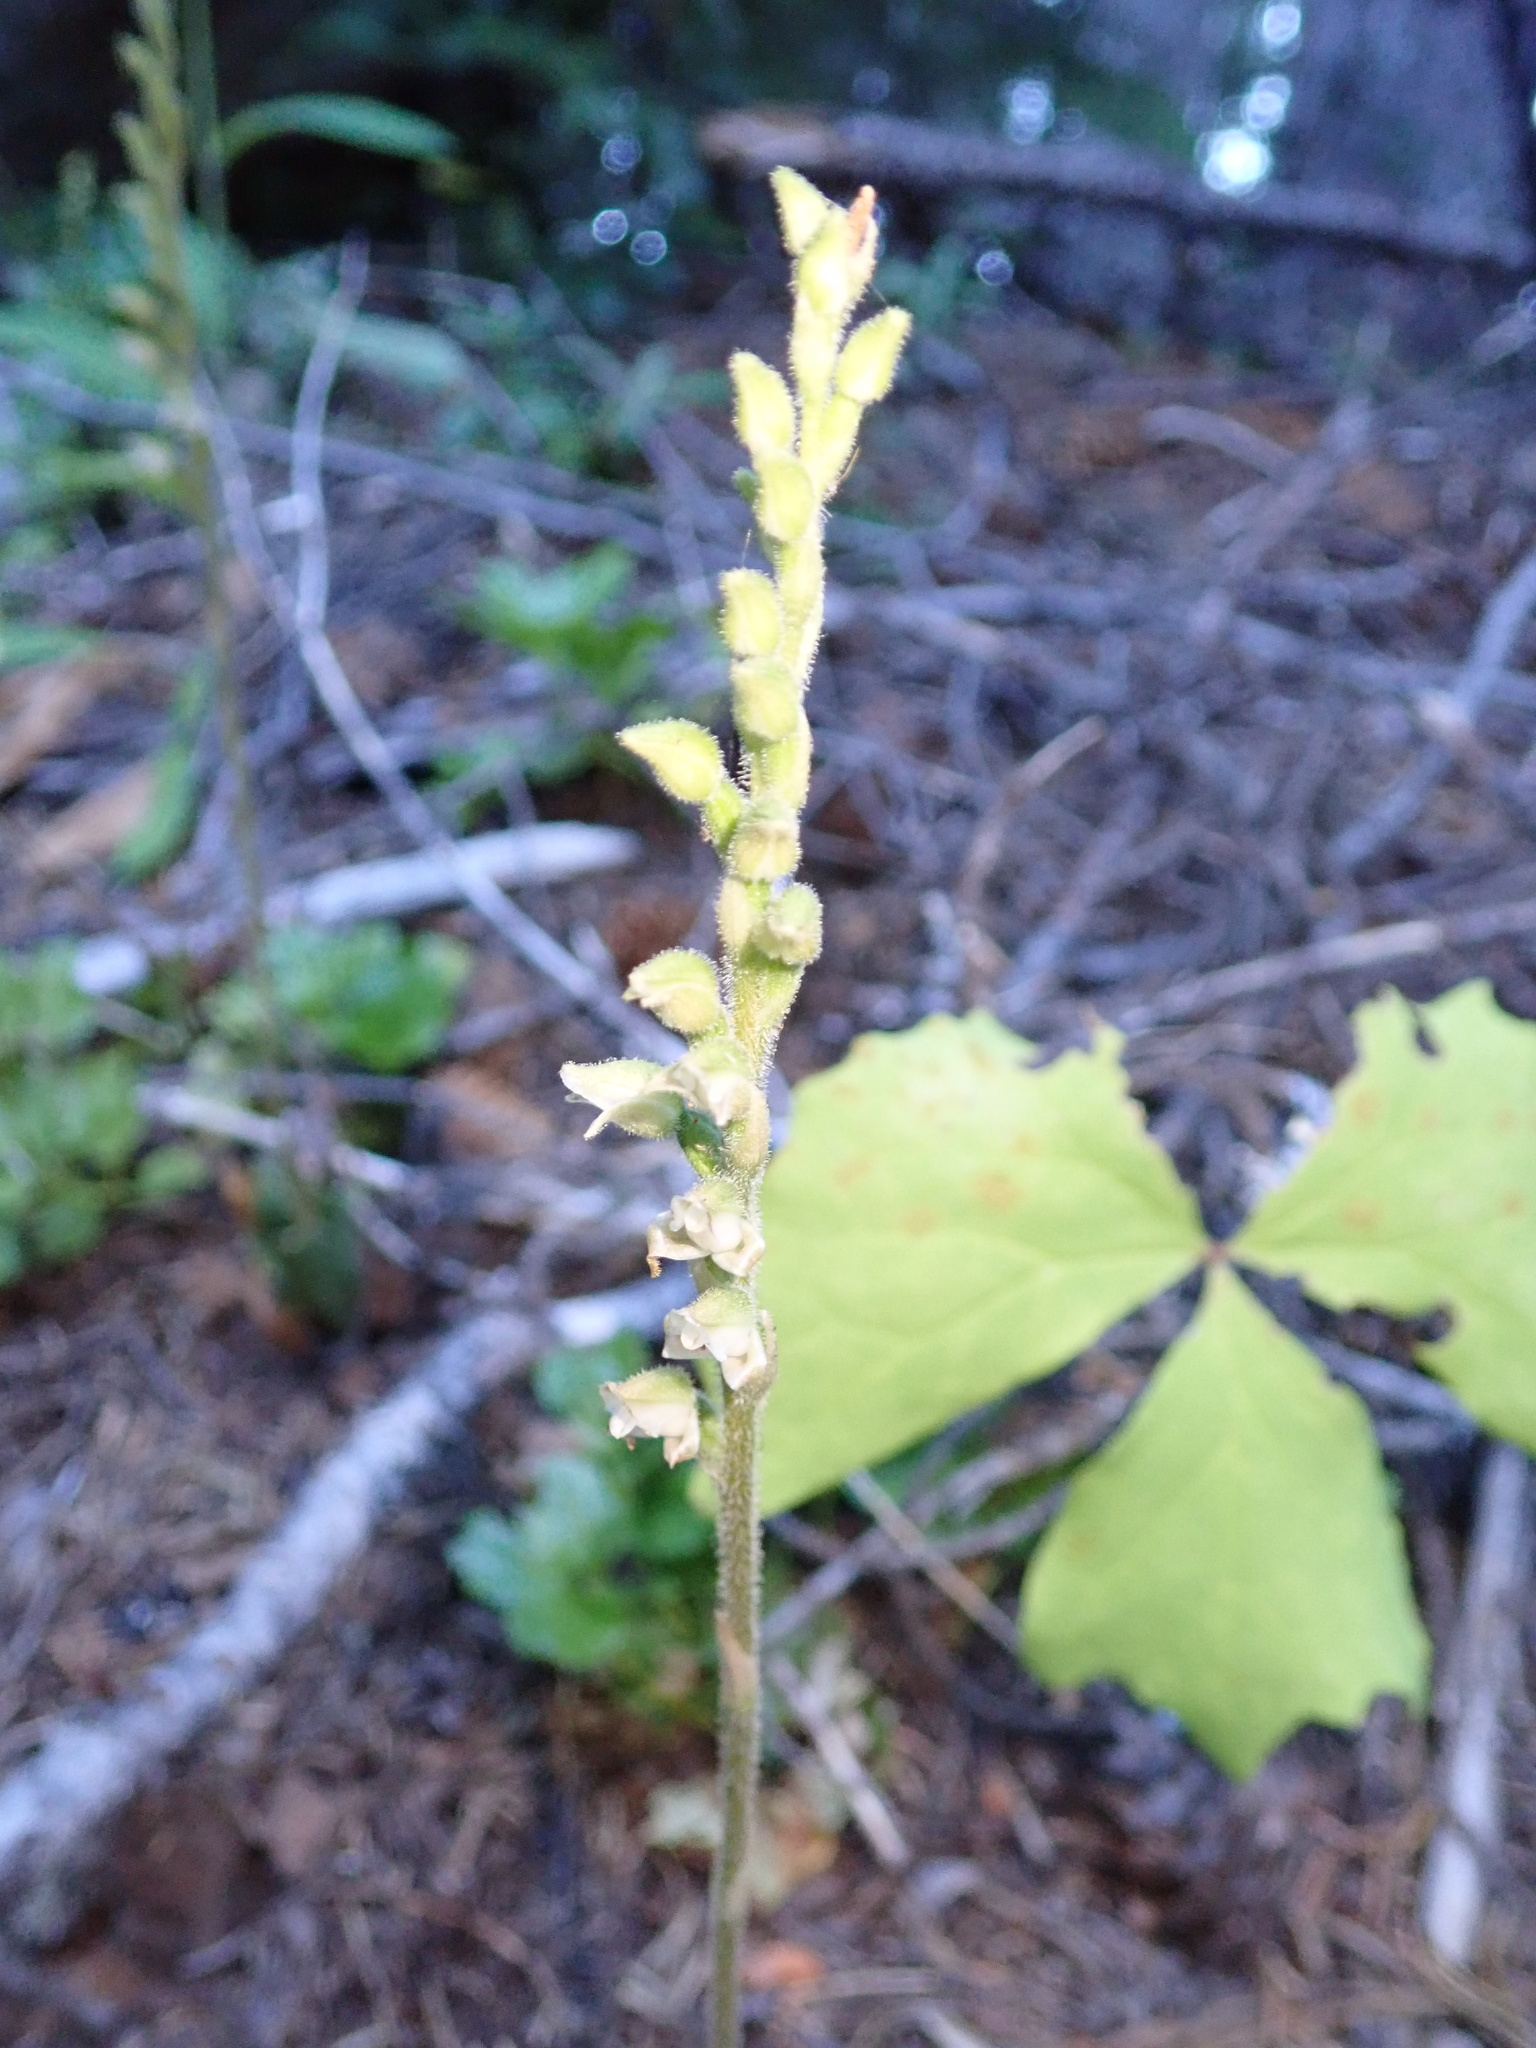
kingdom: Plantae
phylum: Tracheophyta
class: Liliopsida
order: Asparagales
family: Orchidaceae
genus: Goodyera
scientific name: Goodyera oblongifolia
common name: Giant rattlesnake-plantain
